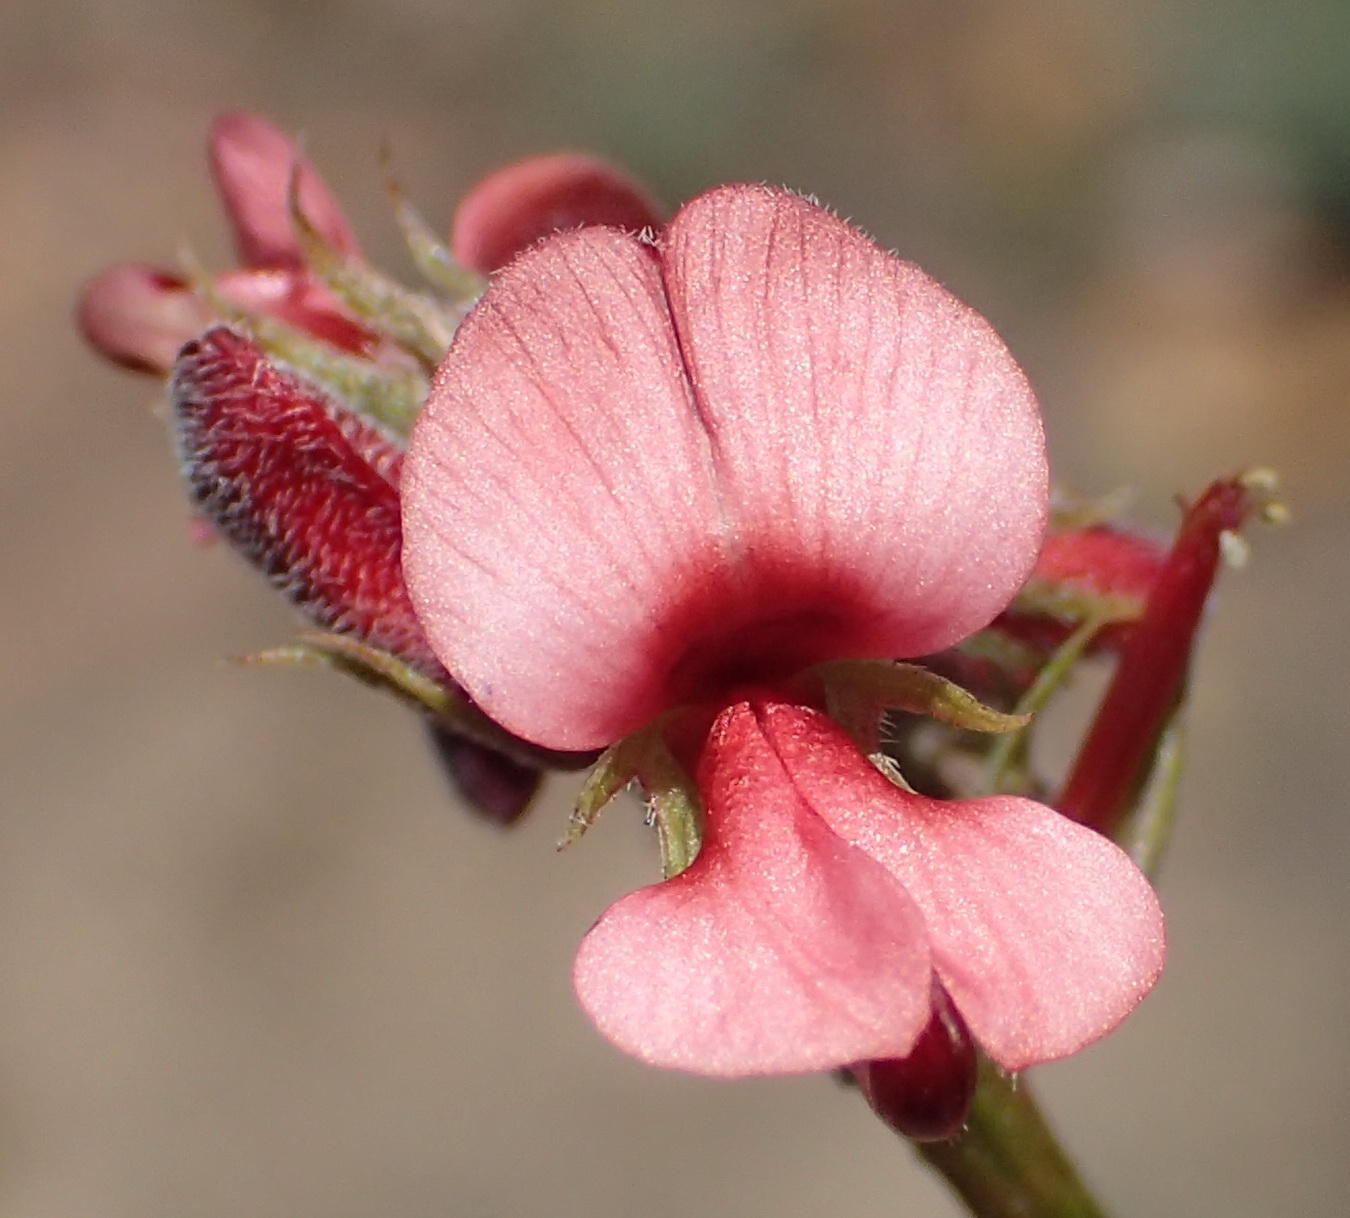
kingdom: Plantae
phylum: Tracheophyta
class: Magnoliopsida
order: Fabales
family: Fabaceae
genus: Indigofera
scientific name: Indigofera heterophylla
